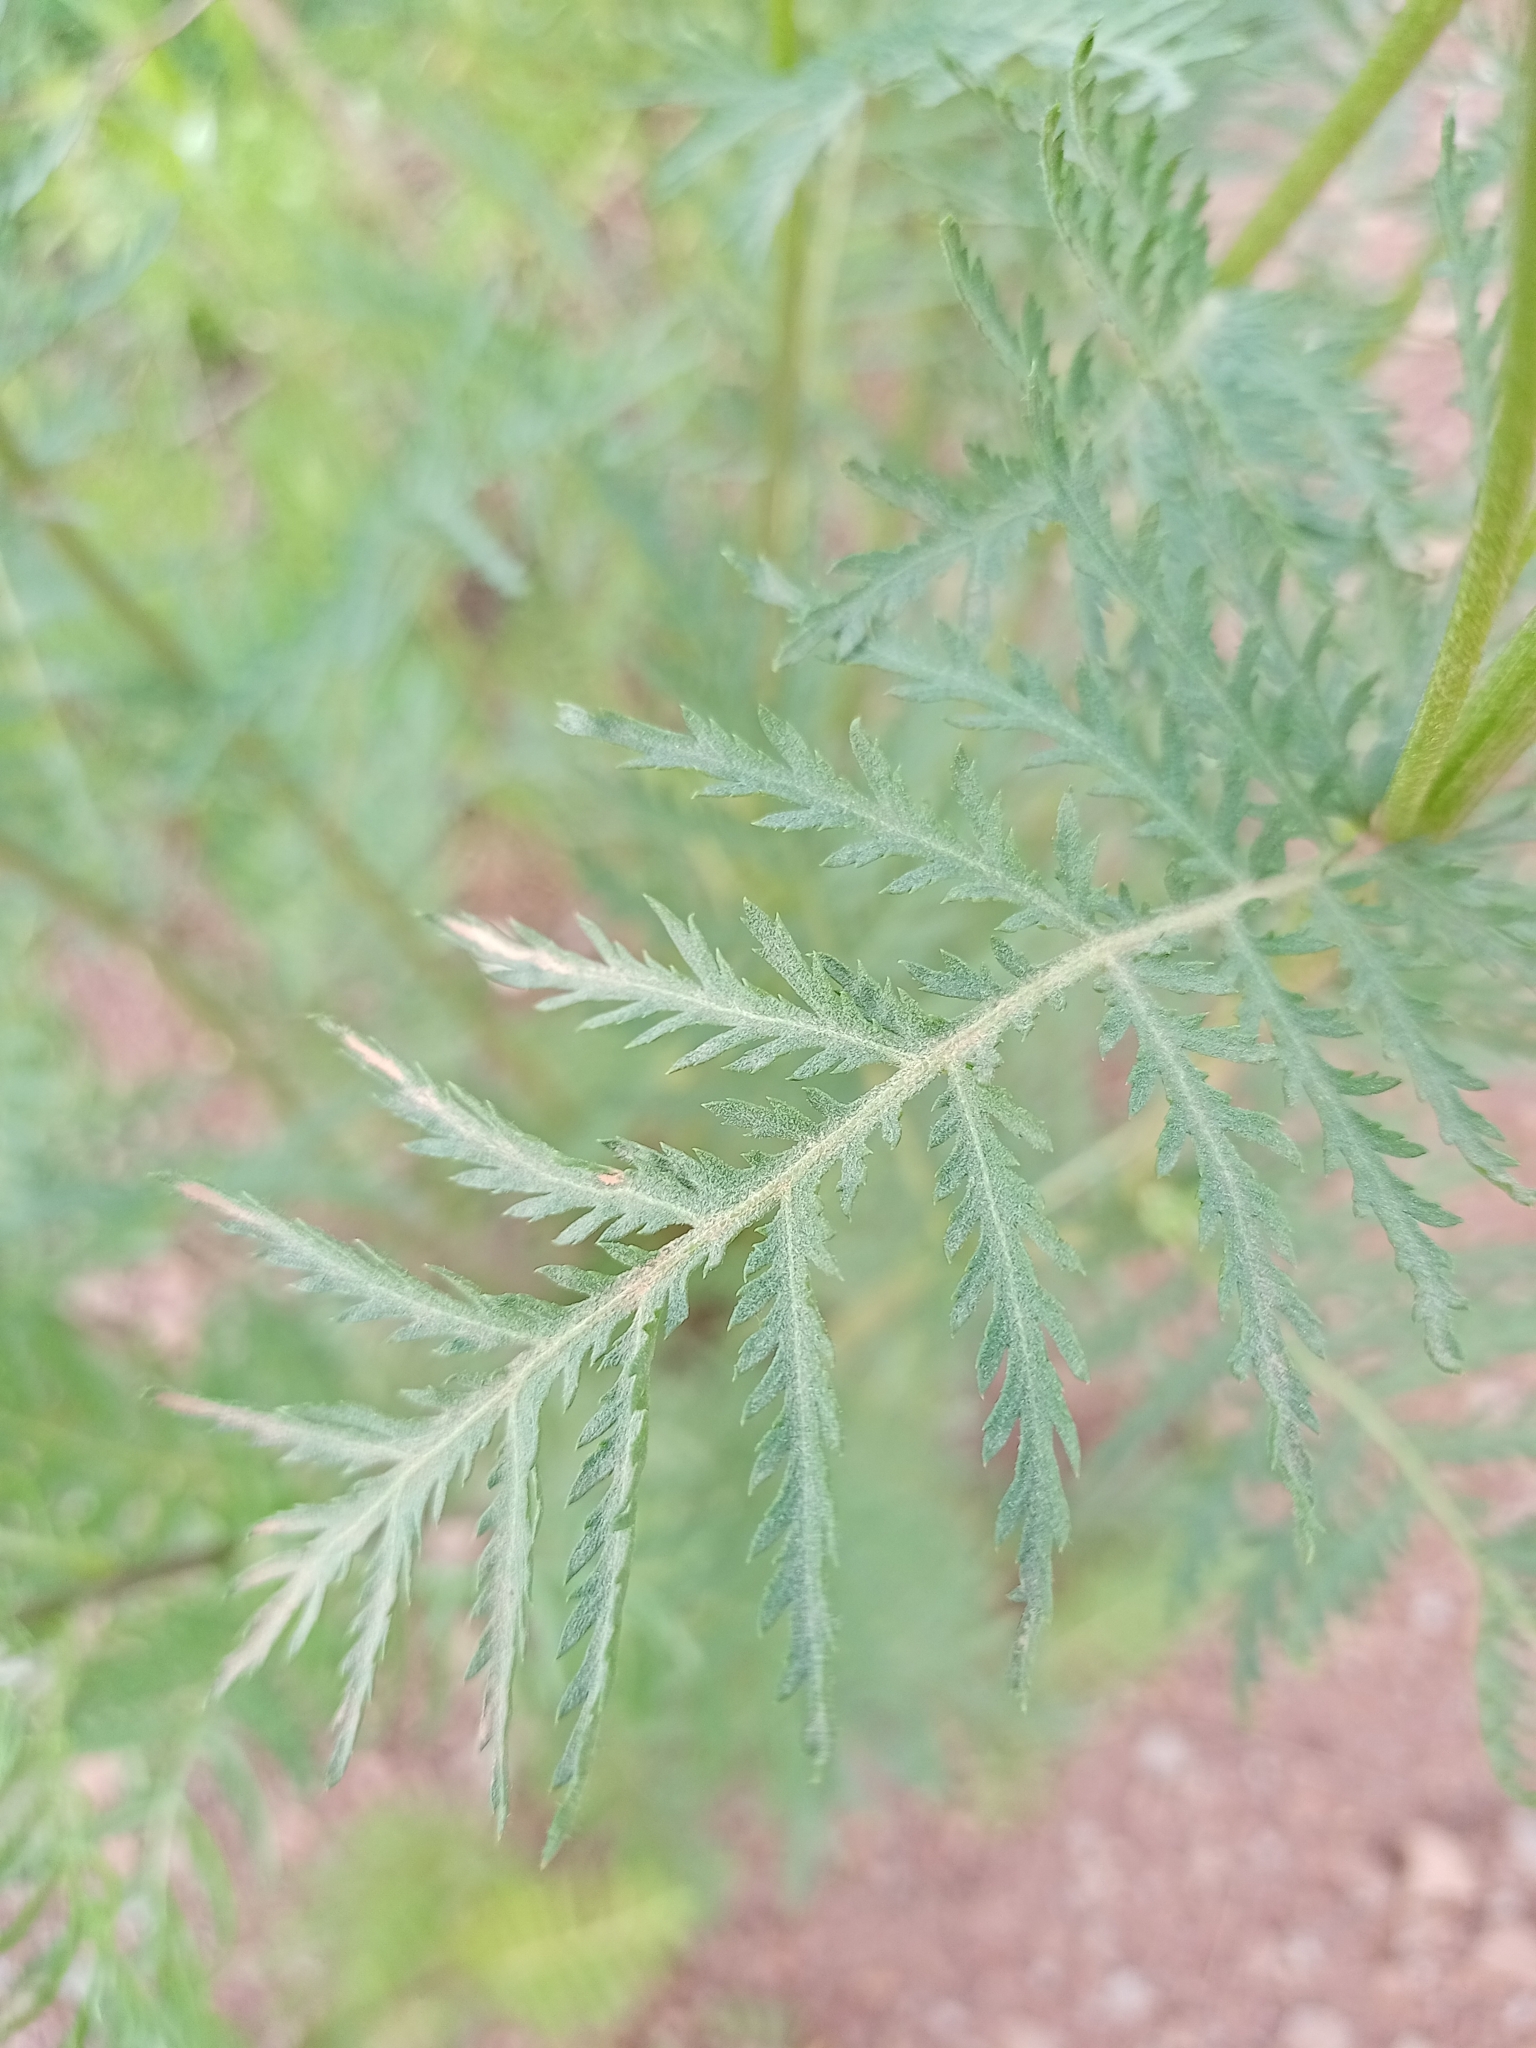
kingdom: Plantae
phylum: Tracheophyta
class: Magnoliopsida
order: Asterales
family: Asteraceae
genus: Tanacetum
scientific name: Tanacetum vulgare
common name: Common tansy
